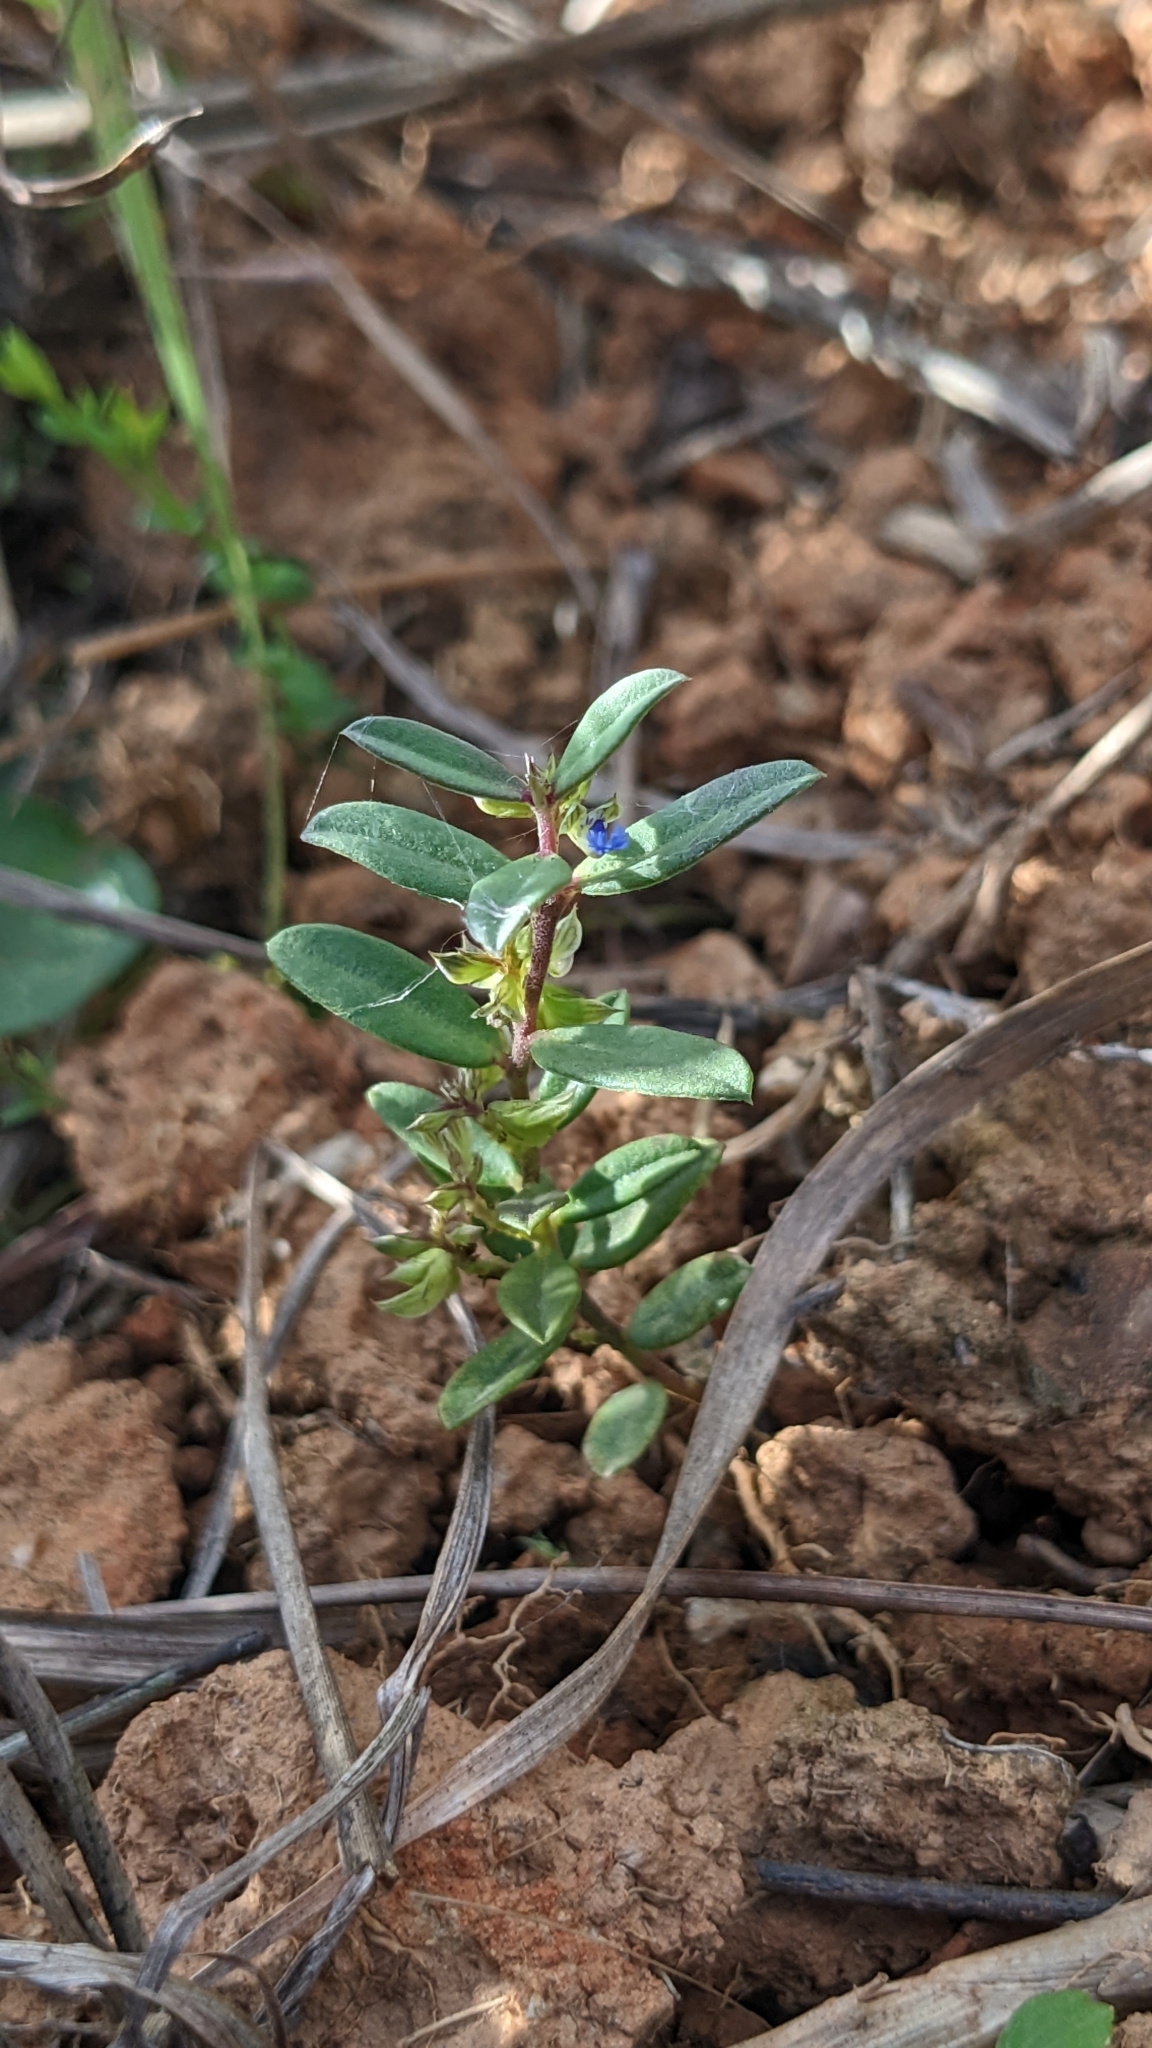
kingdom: Plantae
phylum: Tracheophyta
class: Magnoliopsida
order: Fabales
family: Polygalaceae
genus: Polygala
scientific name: Polygala arvensis
